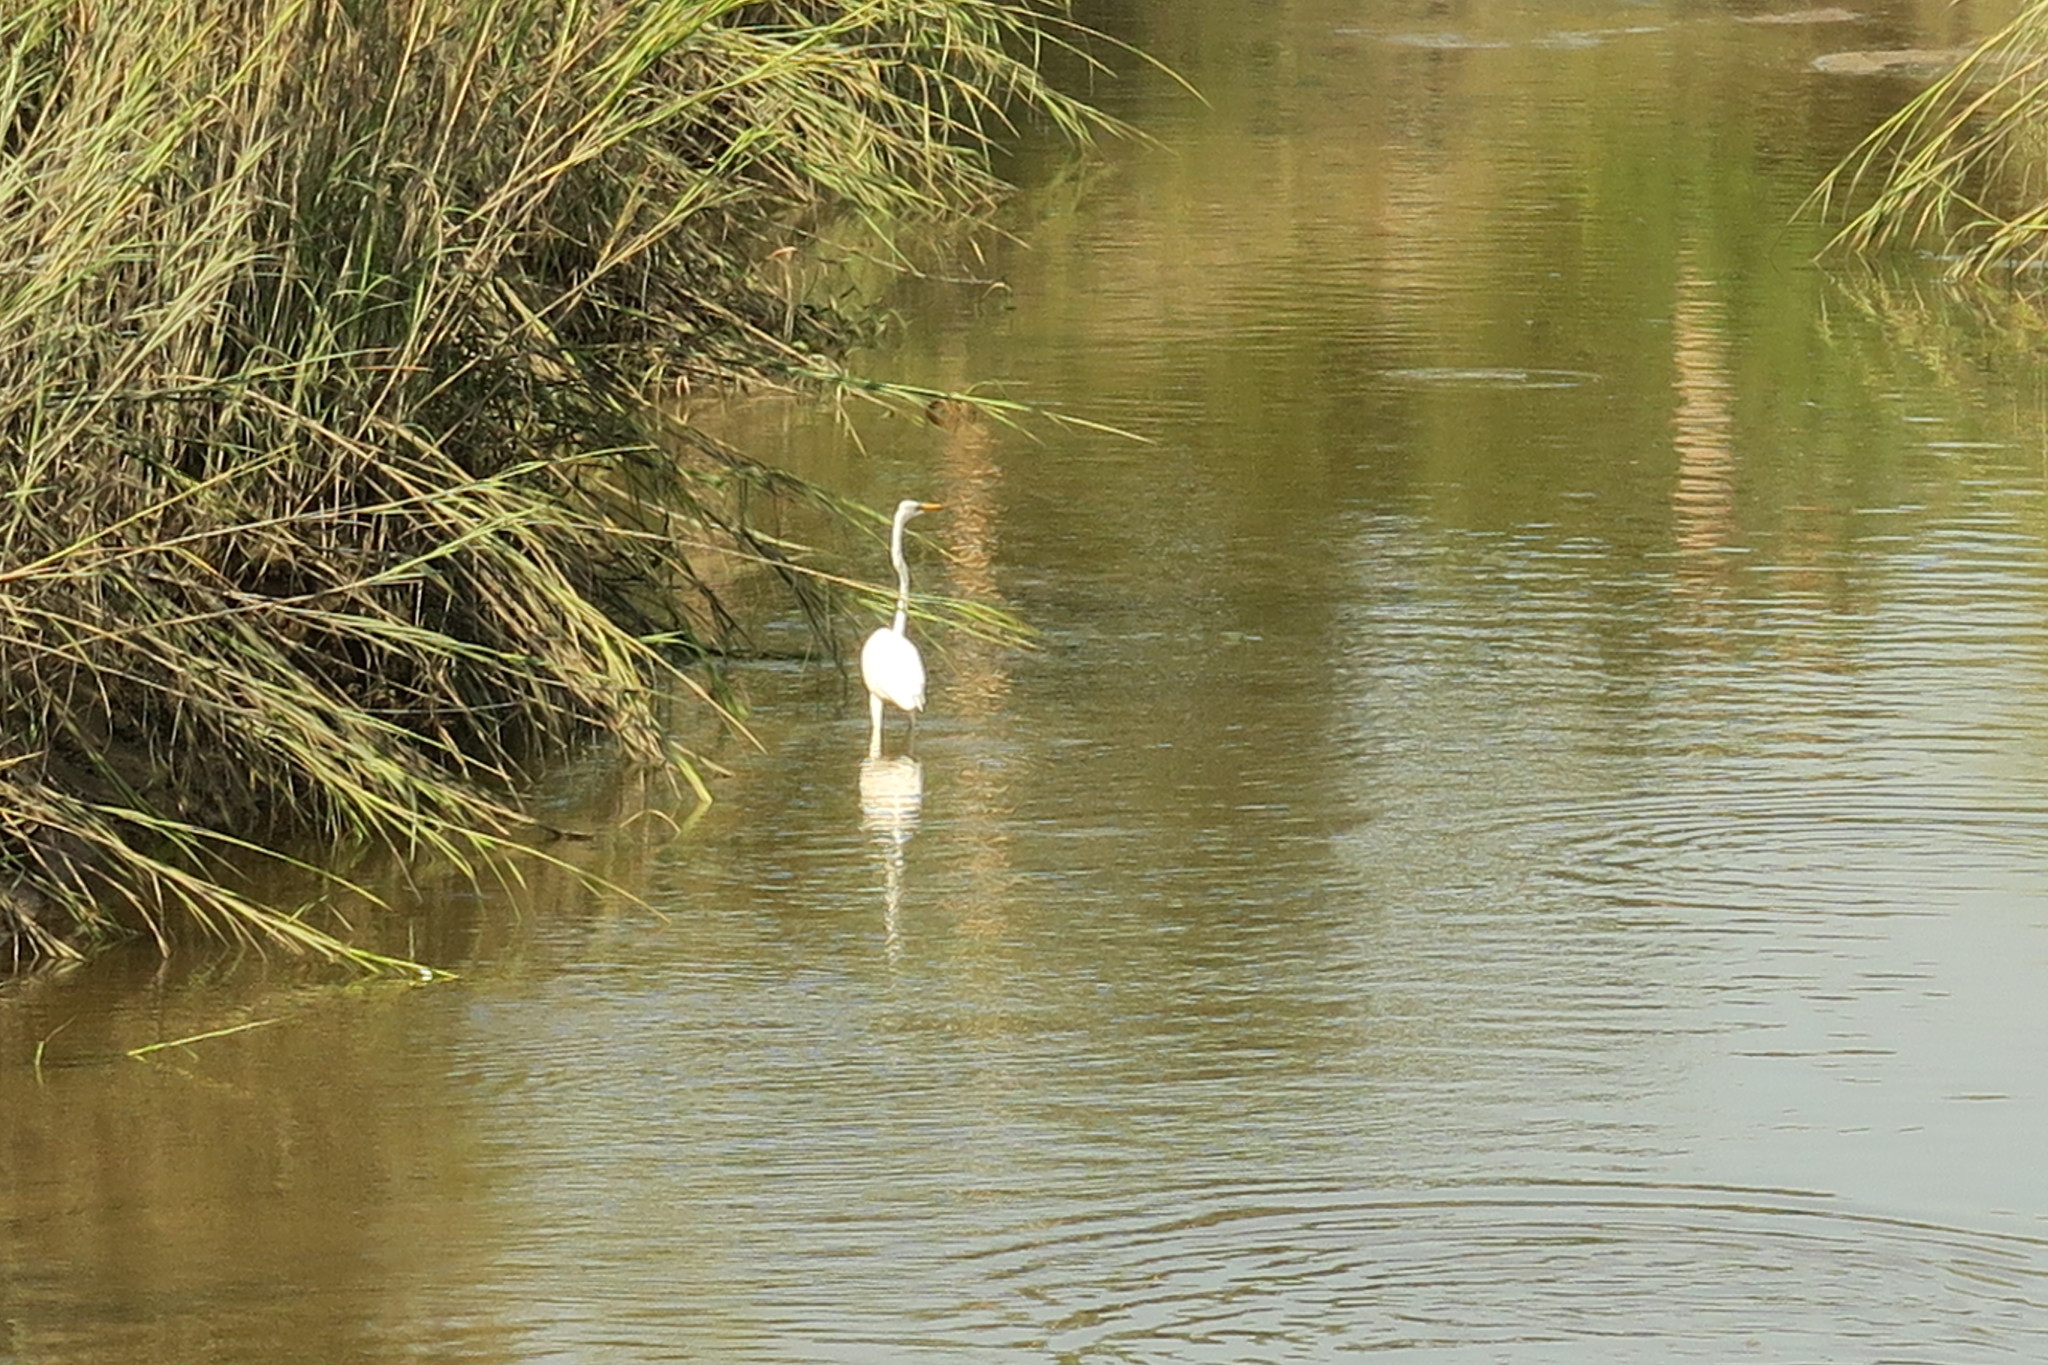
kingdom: Animalia
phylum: Chordata
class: Aves
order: Pelecaniformes
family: Ardeidae
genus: Ardea
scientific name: Ardea alba
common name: Great egret
